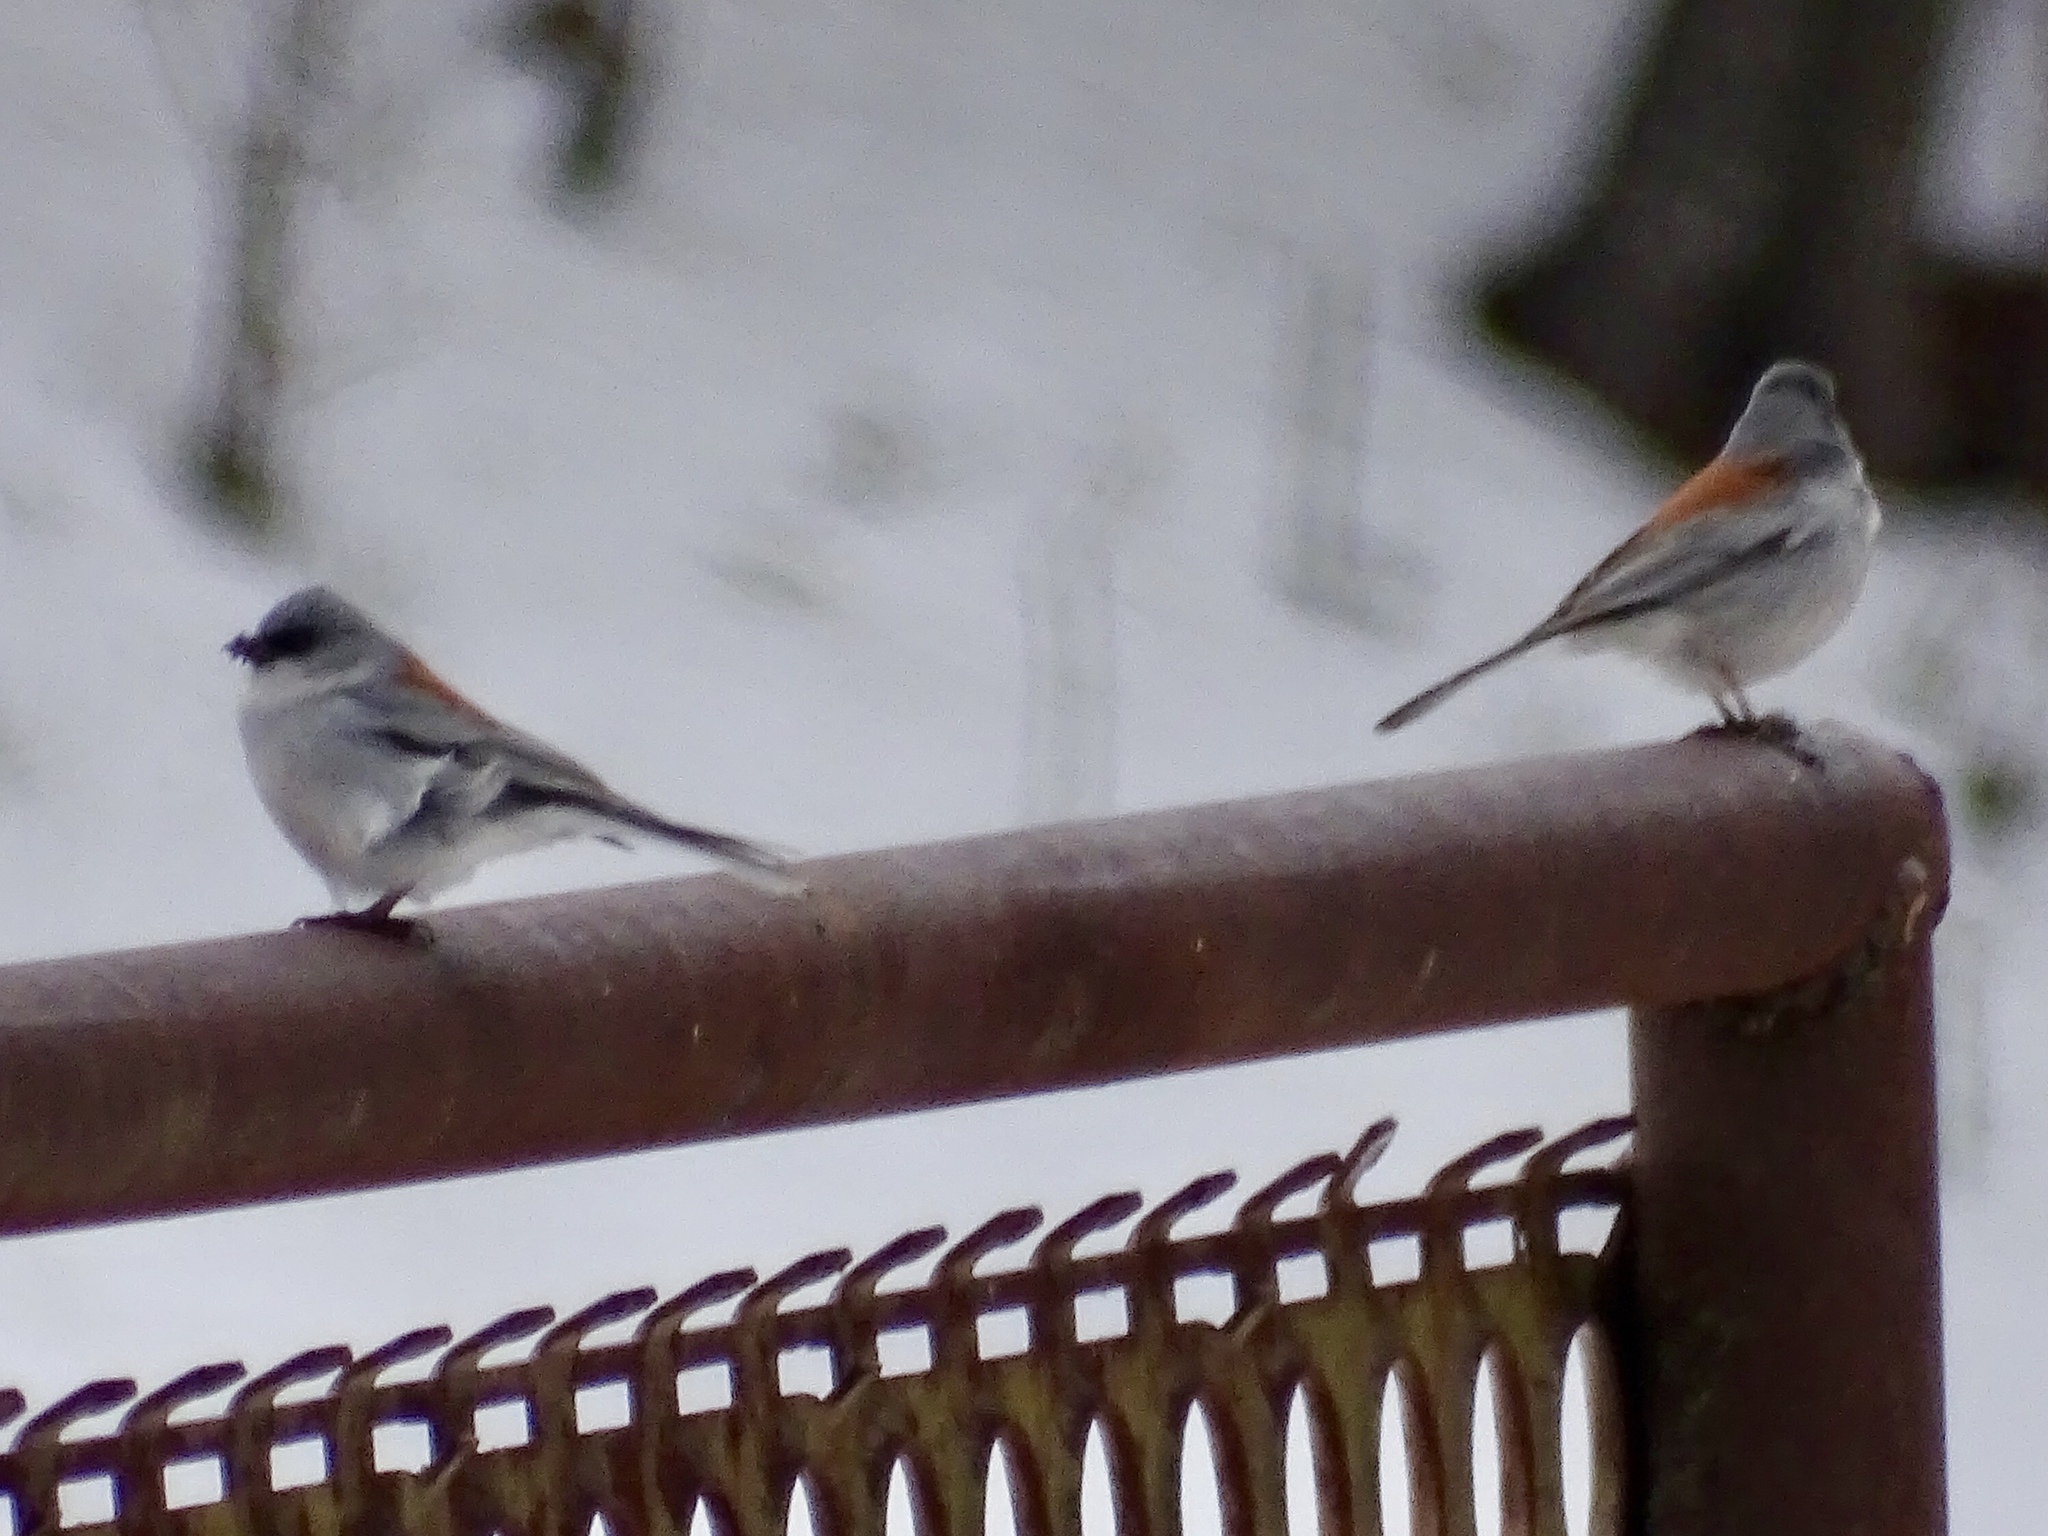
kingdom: Animalia
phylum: Chordata
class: Aves
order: Passeriformes
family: Passerellidae
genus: Junco
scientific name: Junco hyemalis
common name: Dark-eyed junco
